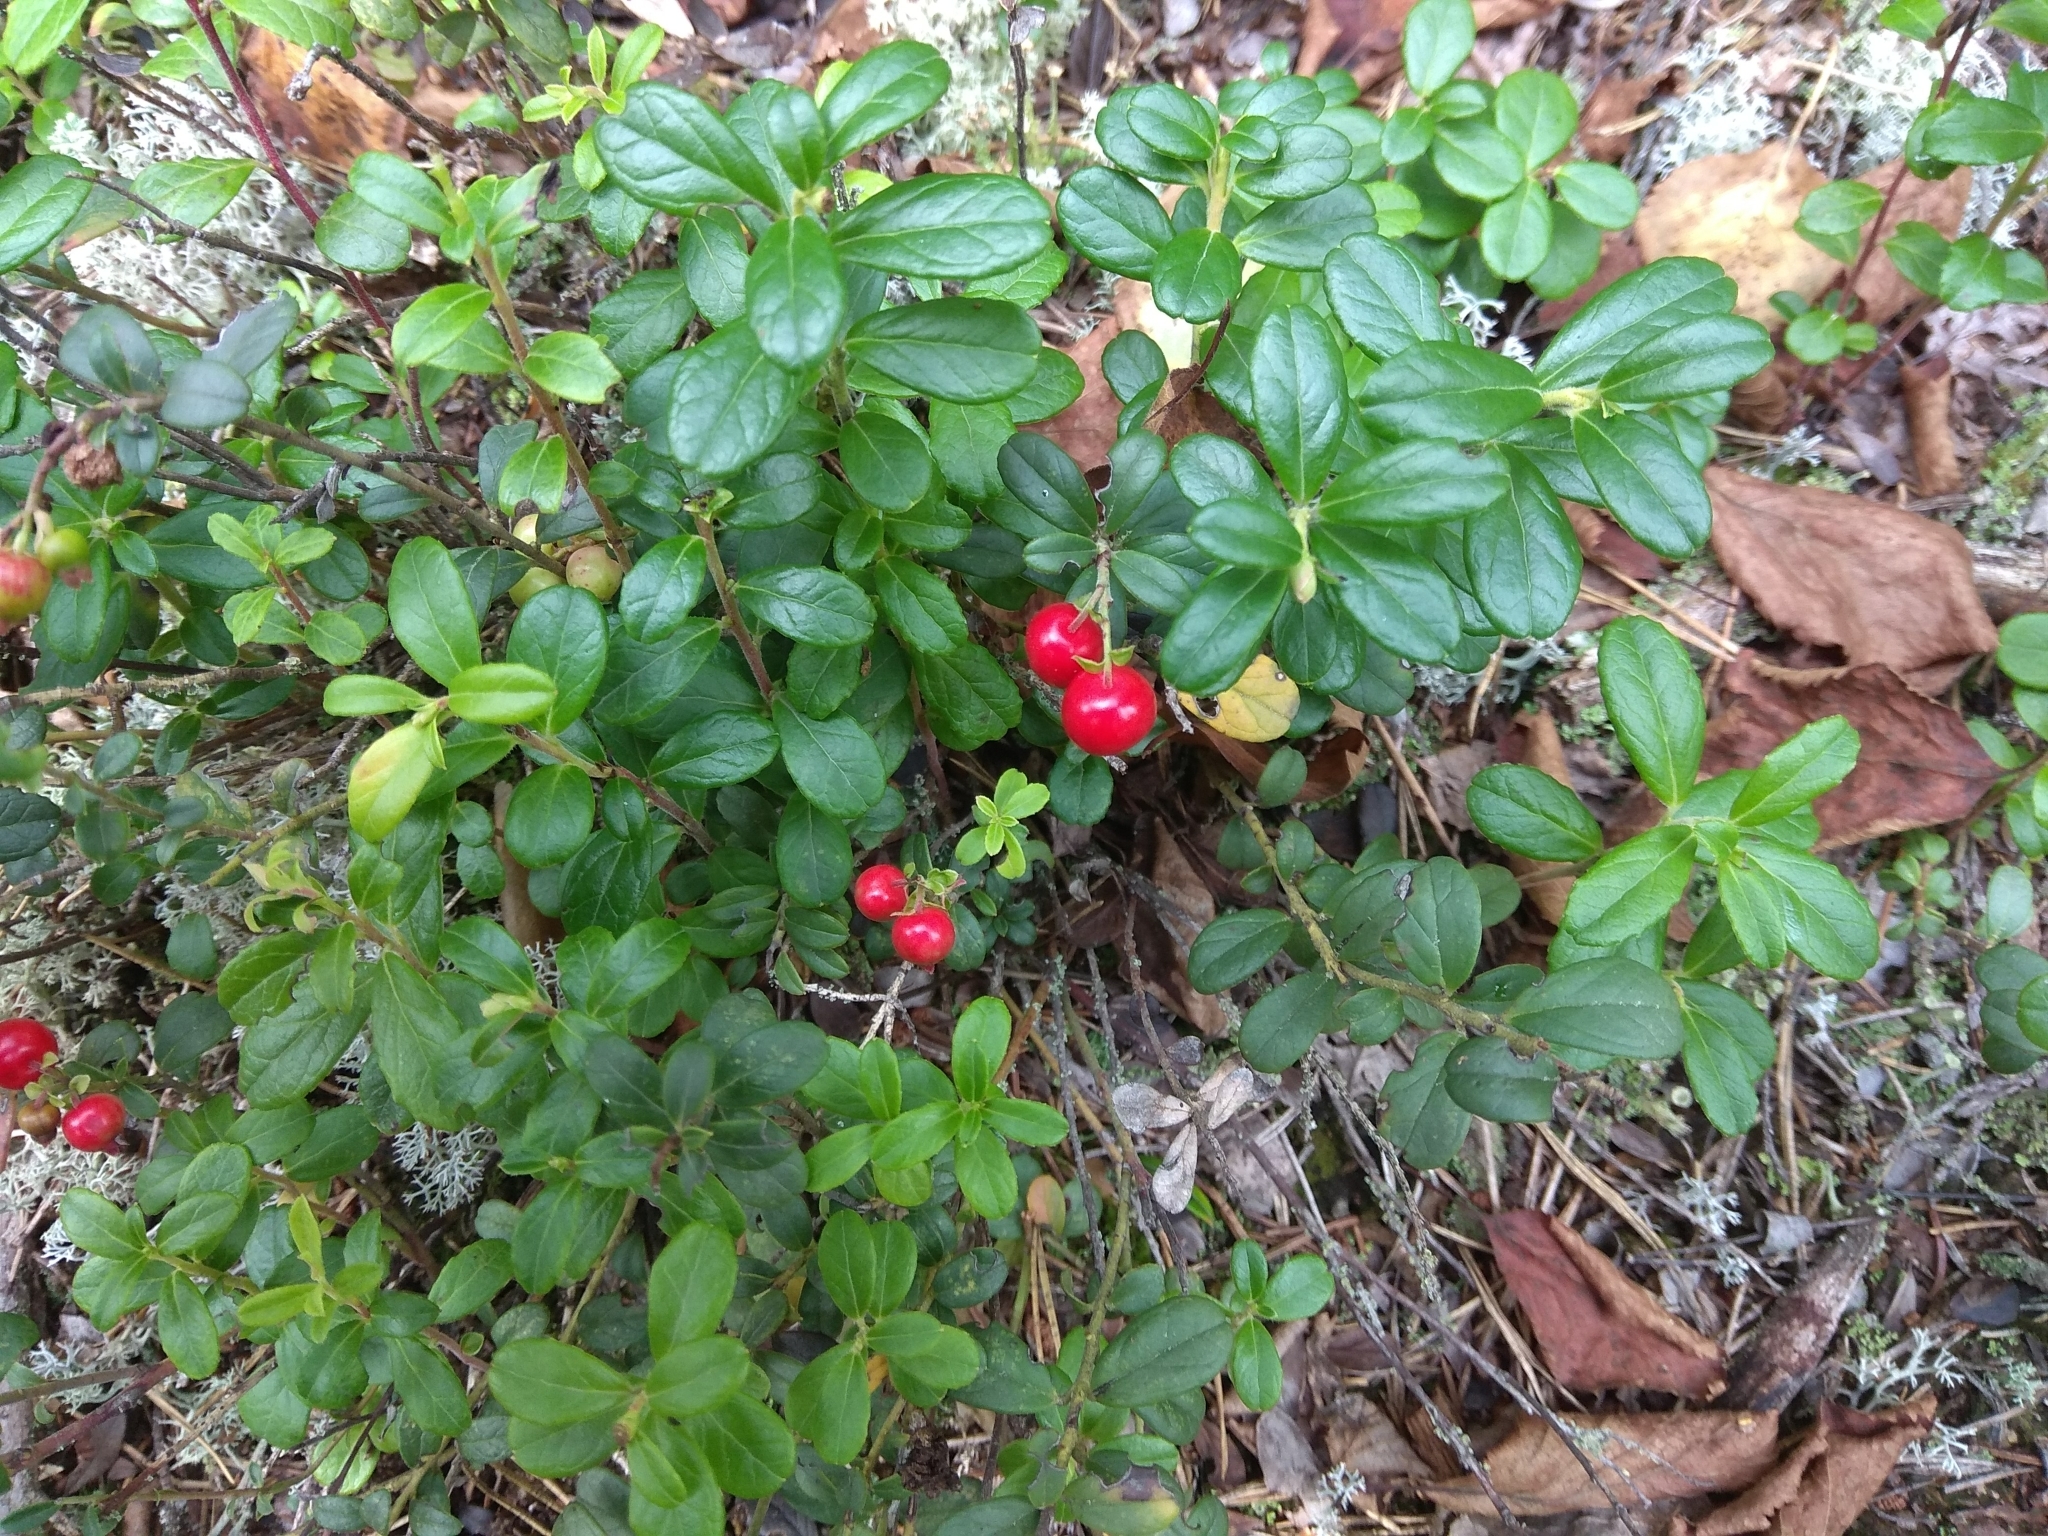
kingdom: Plantae
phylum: Tracheophyta
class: Magnoliopsida
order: Ericales
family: Ericaceae
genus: Vaccinium
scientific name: Vaccinium vitis-idaea
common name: Cowberry
